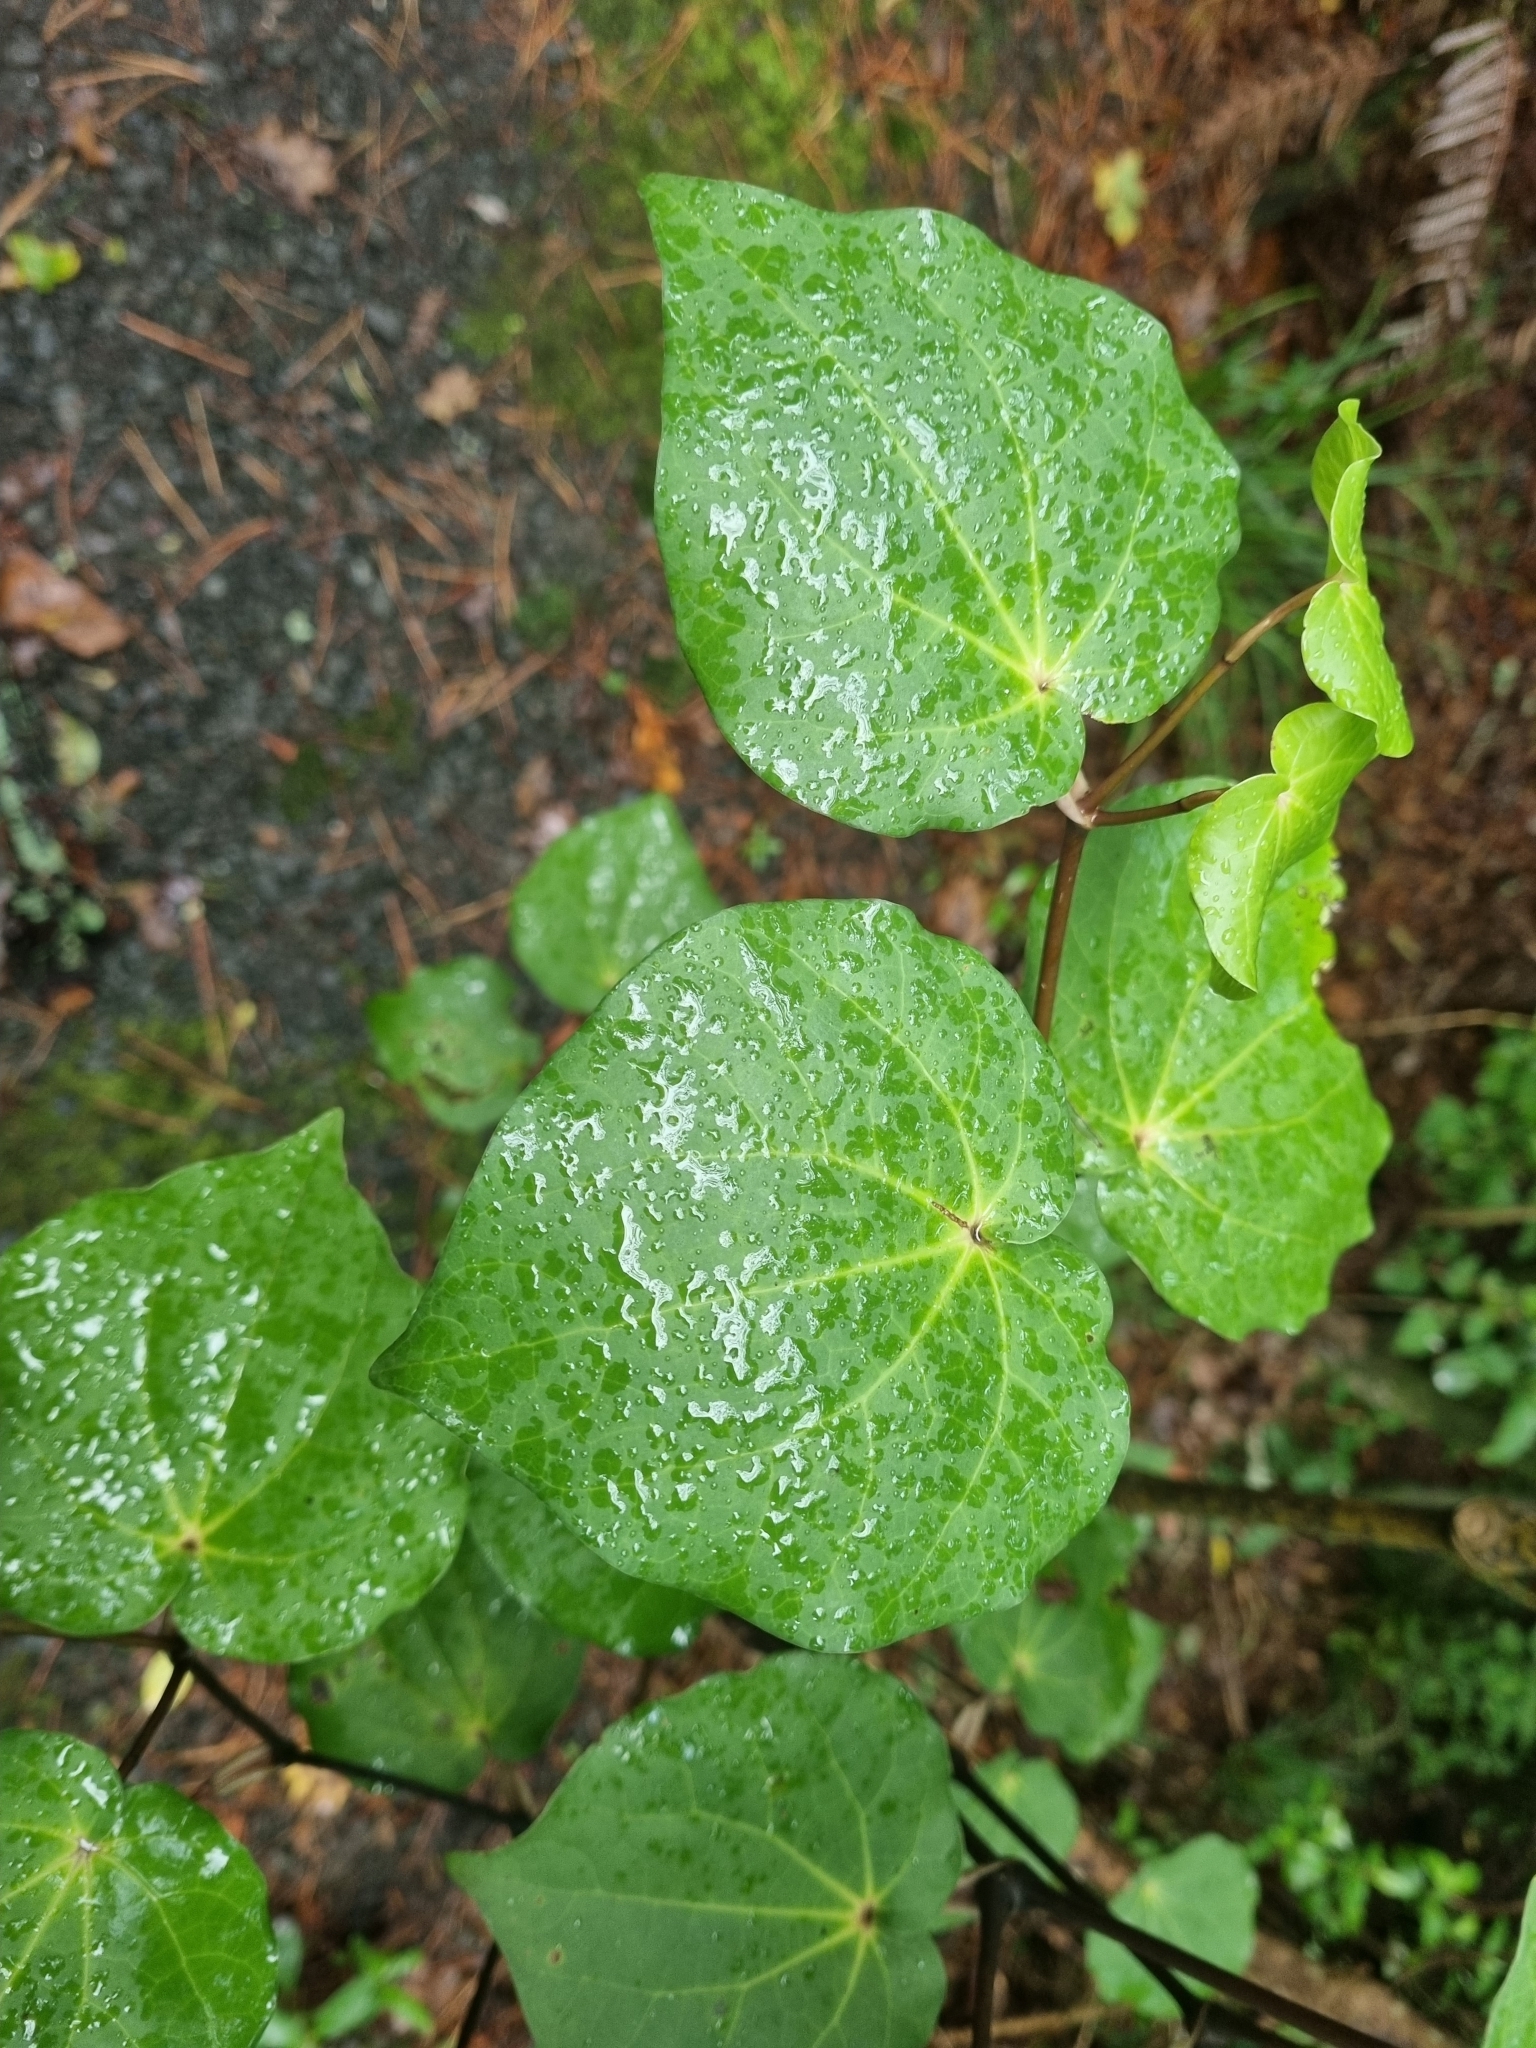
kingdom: Plantae
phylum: Tracheophyta
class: Magnoliopsida
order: Piperales
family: Piperaceae
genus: Macropiper
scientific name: Macropiper excelsum
